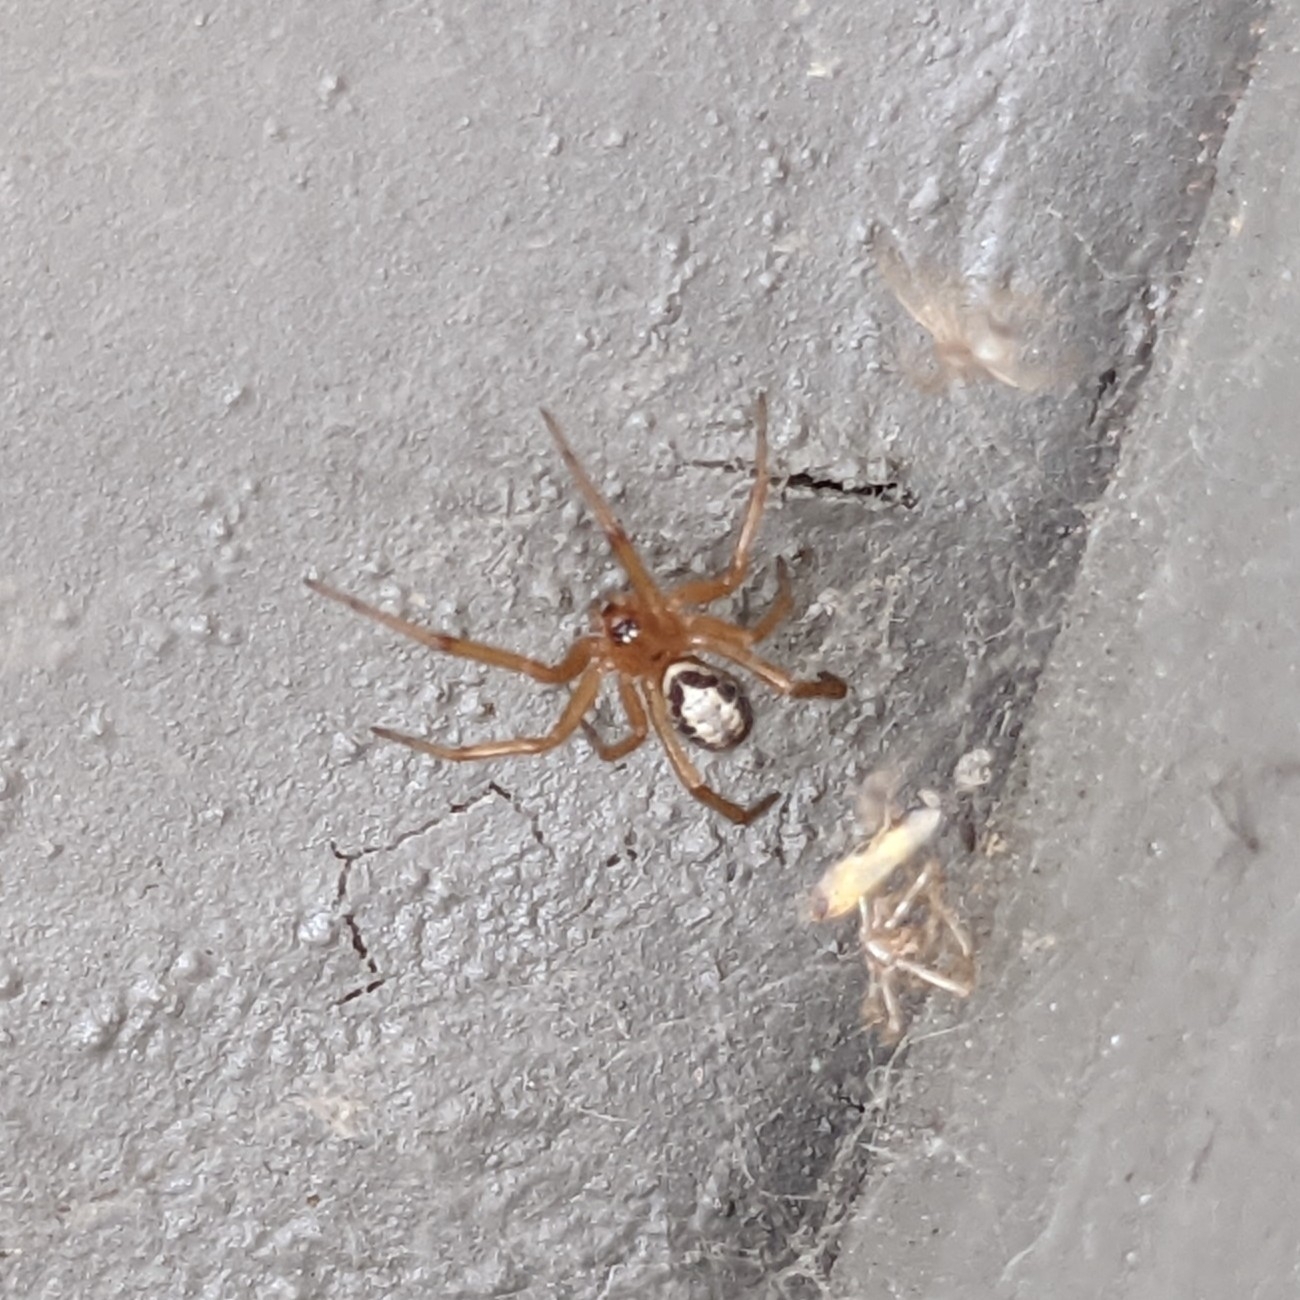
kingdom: Animalia
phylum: Arthropoda
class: Arachnida
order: Araneae
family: Theridiidae
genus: Steatoda
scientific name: Steatoda nobilis
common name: Cobweb weaver
